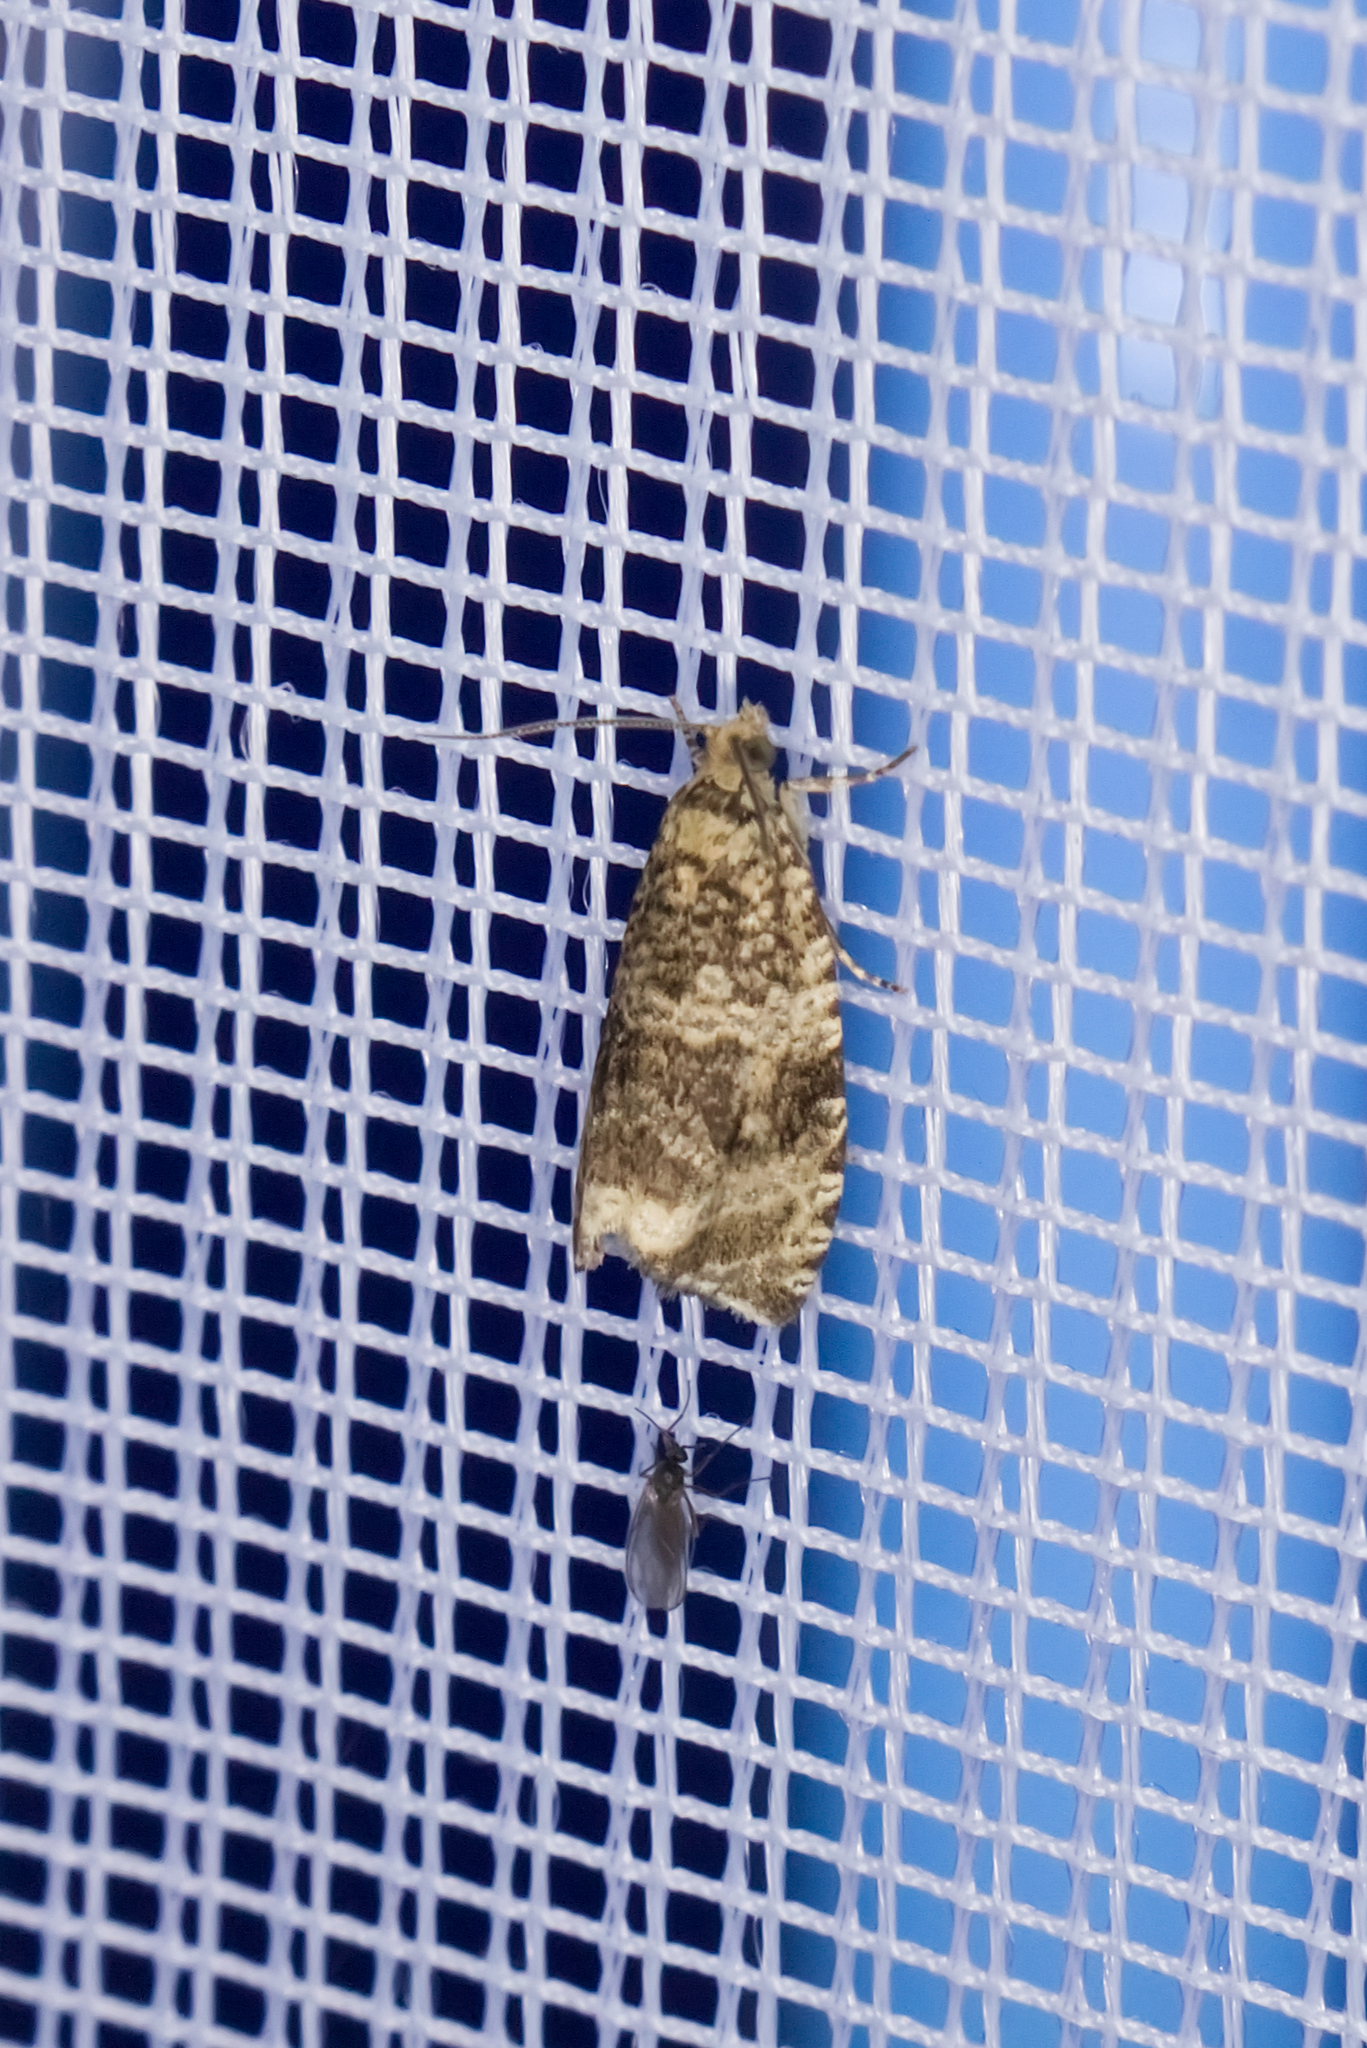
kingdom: Animalia
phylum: Arthropoda
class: Insecta
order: Lepidoptera
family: Tortricidae
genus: Syricoris
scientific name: Syricoris lacunana
